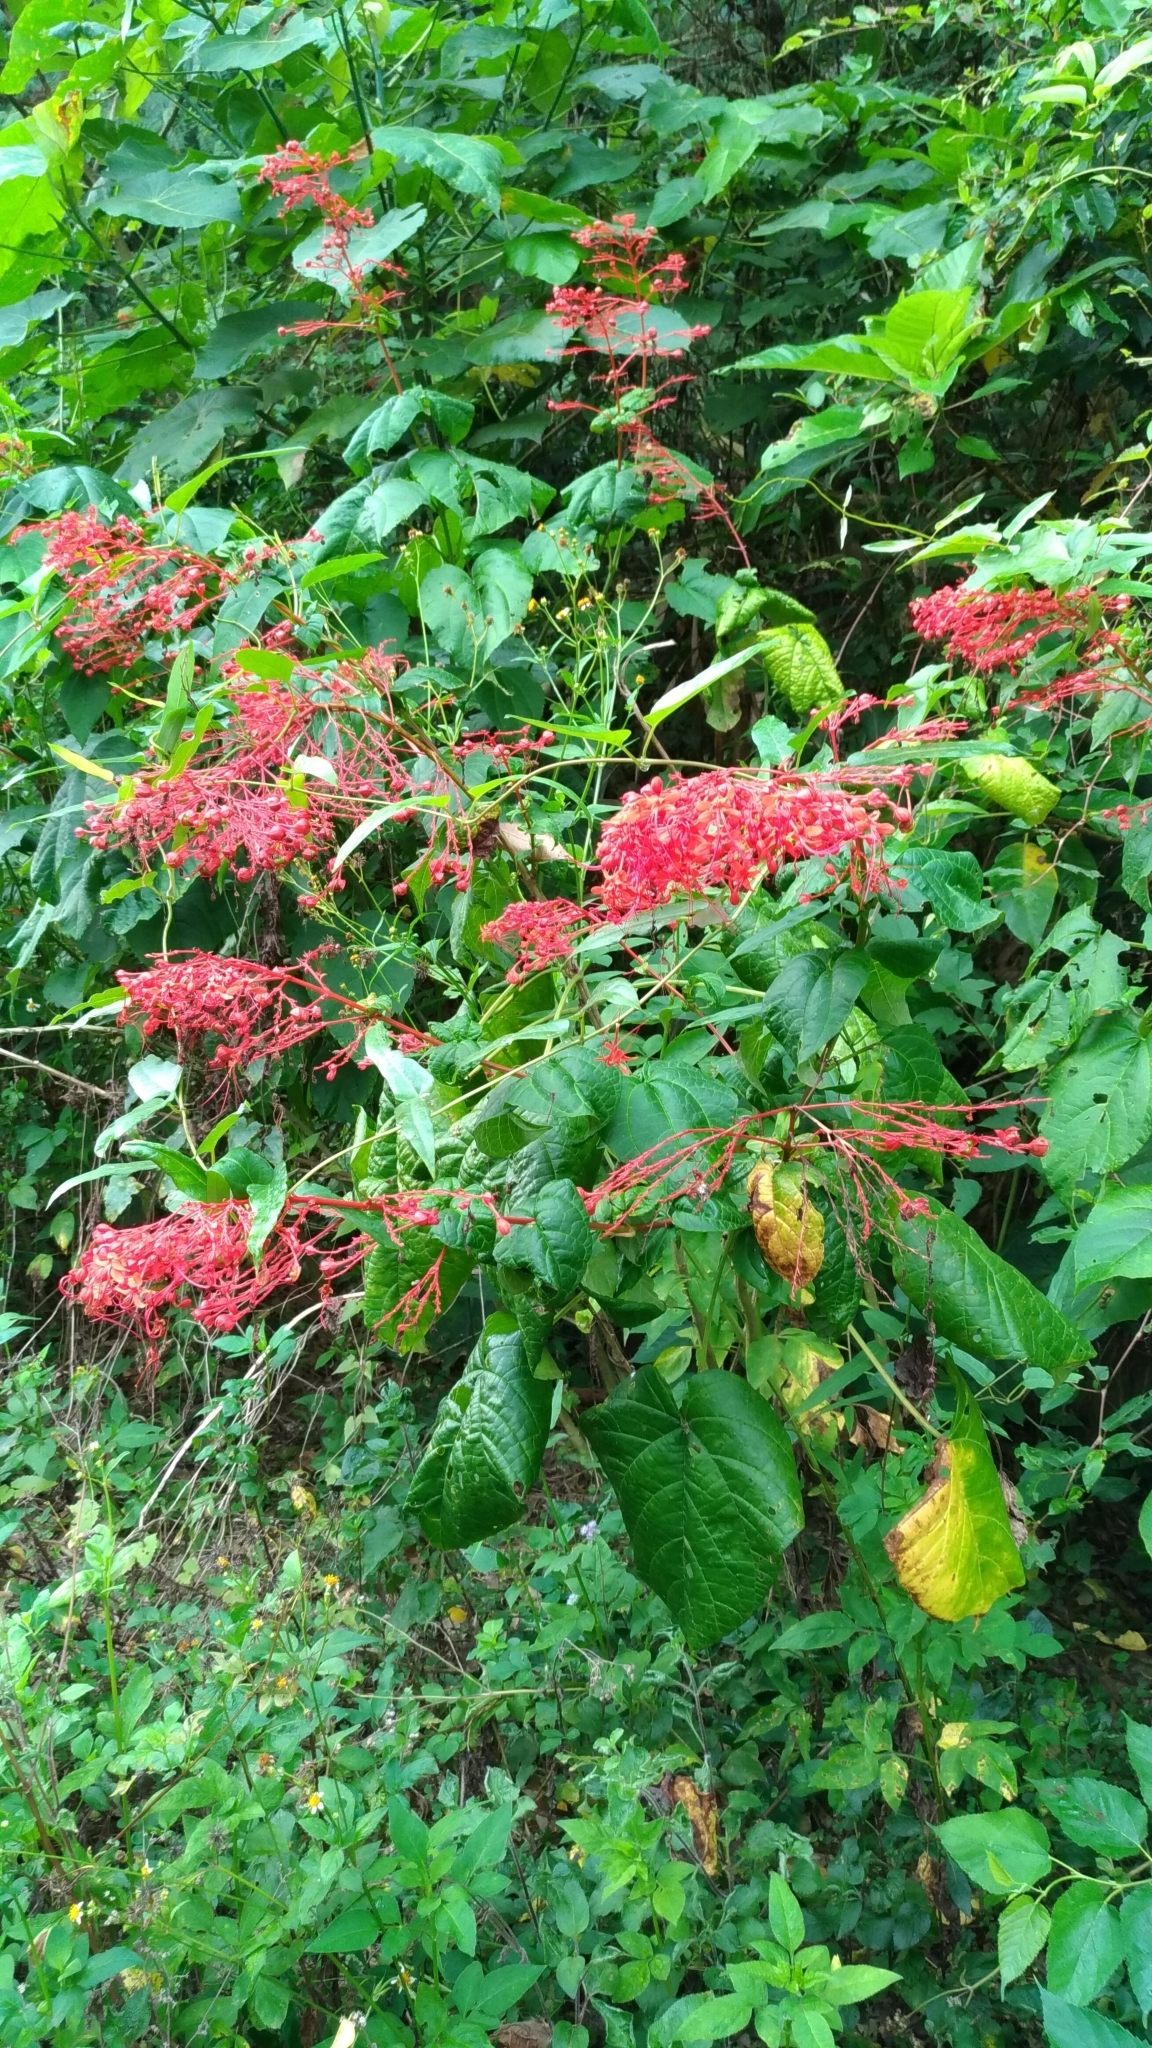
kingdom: Plantae
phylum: Tracheophyta
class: Magnoliopsida
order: Lamiales
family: Lamiaceae
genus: Clerodendrum
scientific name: Clerodendrum japonicum
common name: Japanese glorybower
